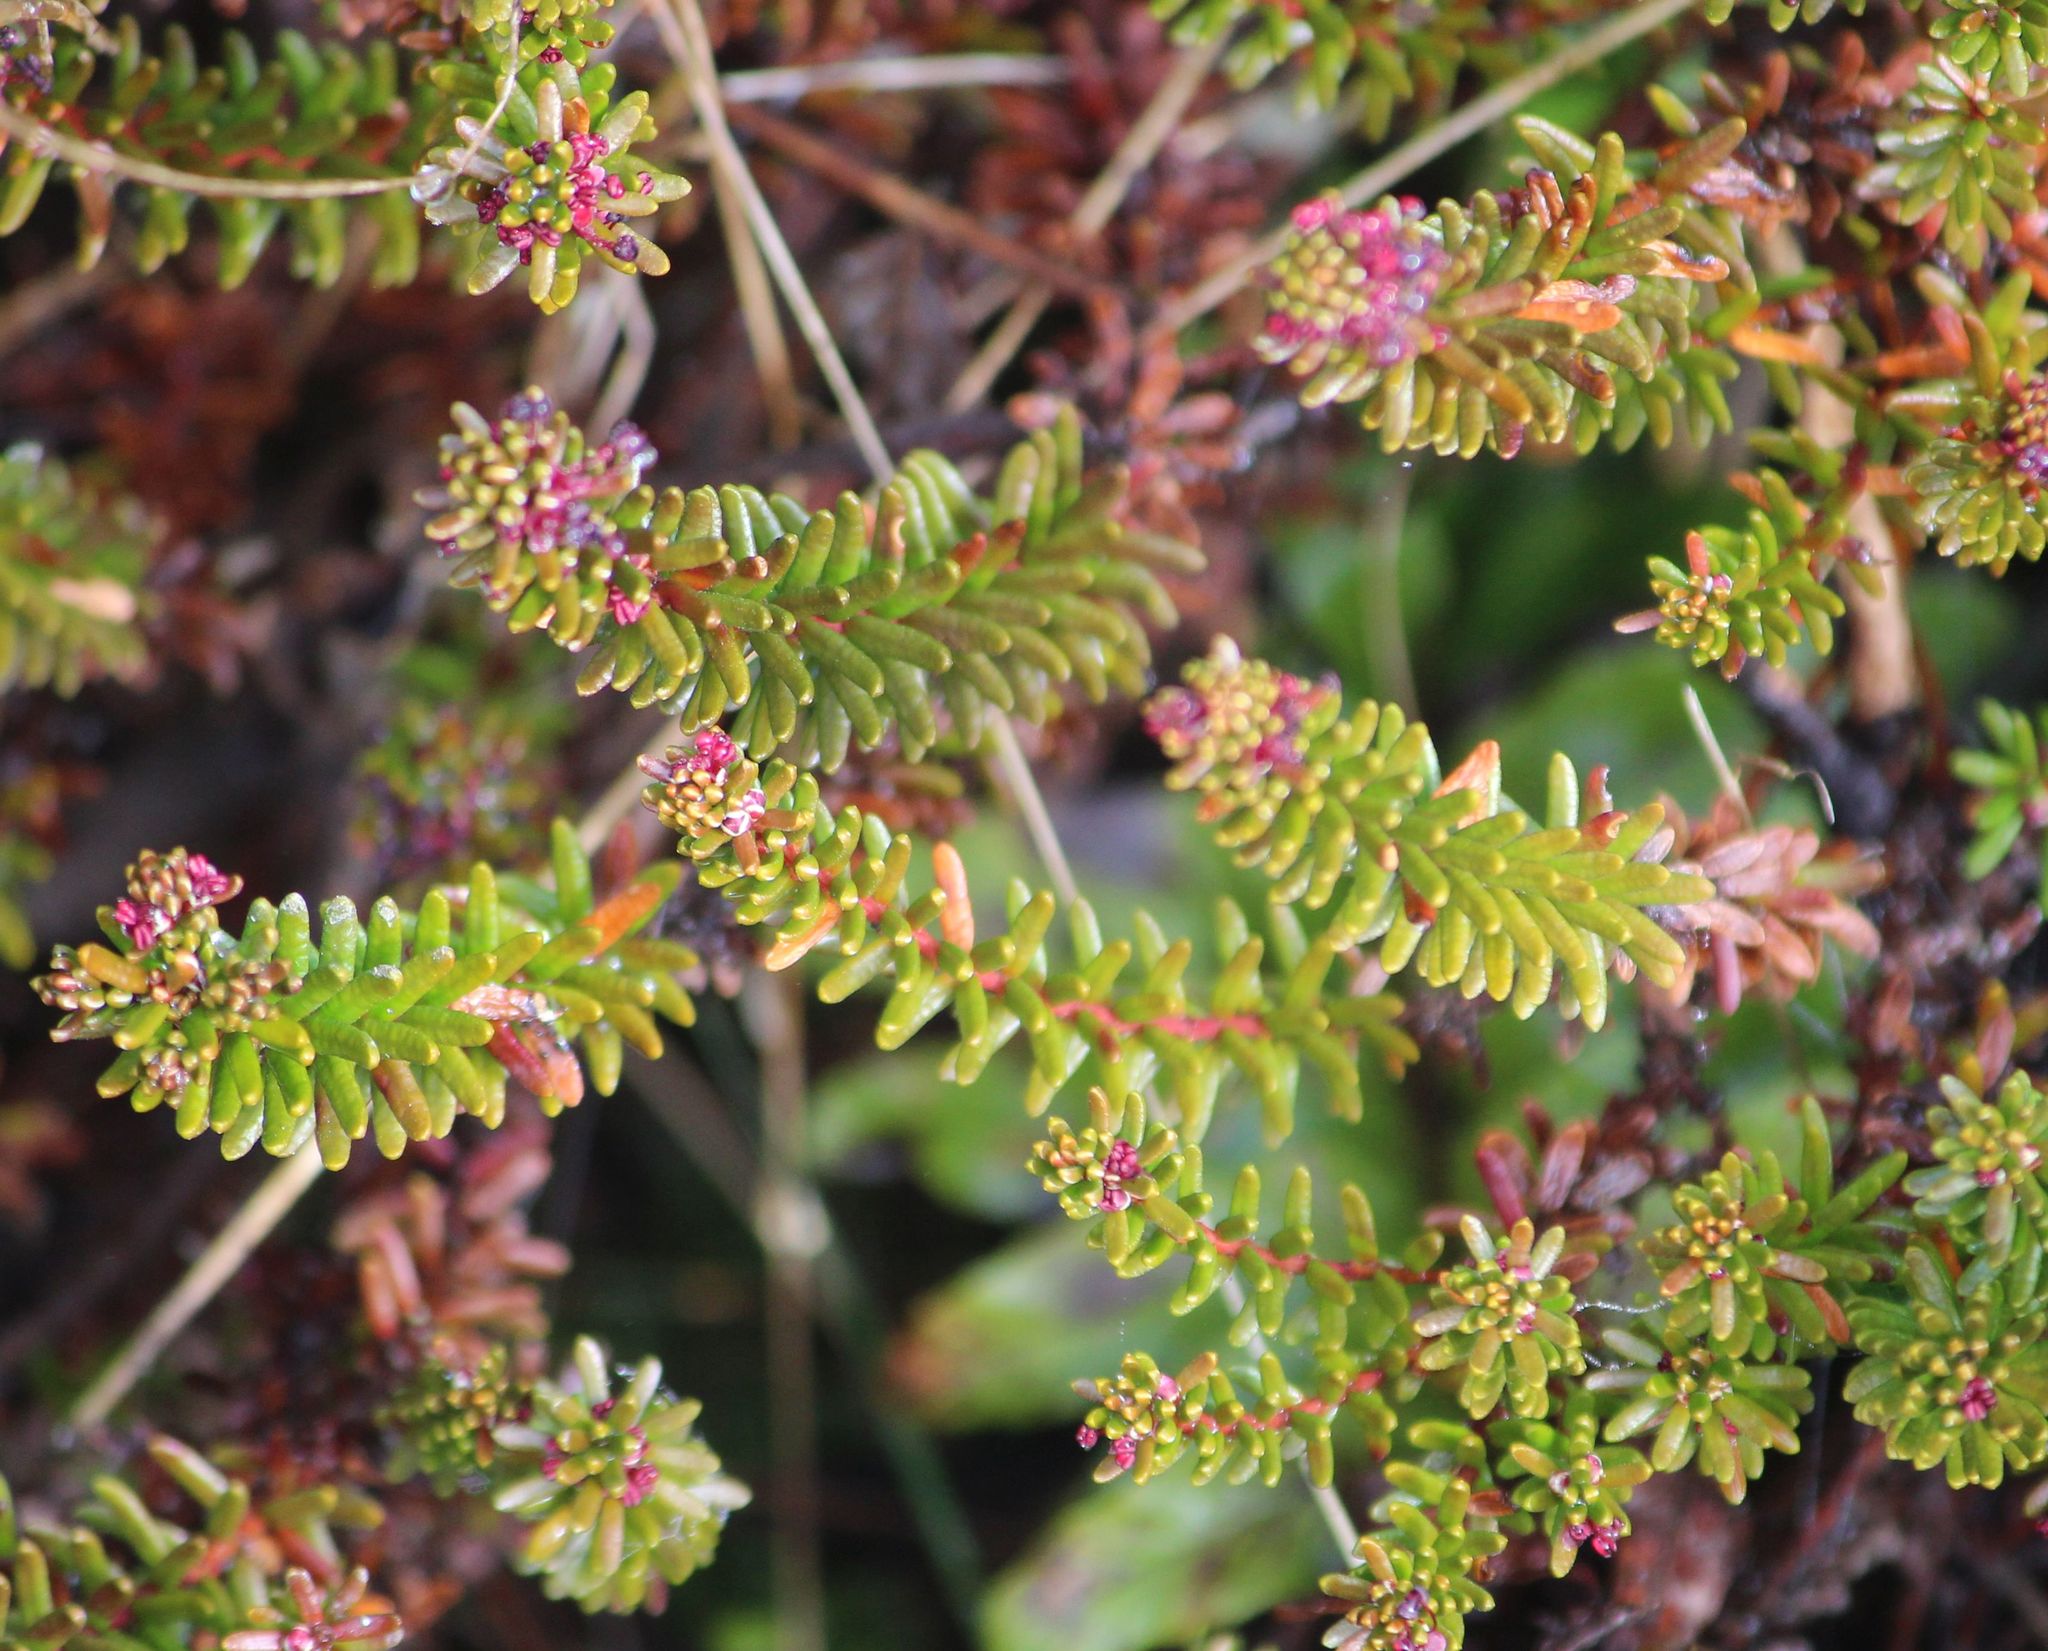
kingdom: Plantae
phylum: Tracheophyta
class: Magnoliopsida
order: Ericales
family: Ericaceae
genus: Empetrum
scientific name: Empetrum nigrum
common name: Black crowberry
